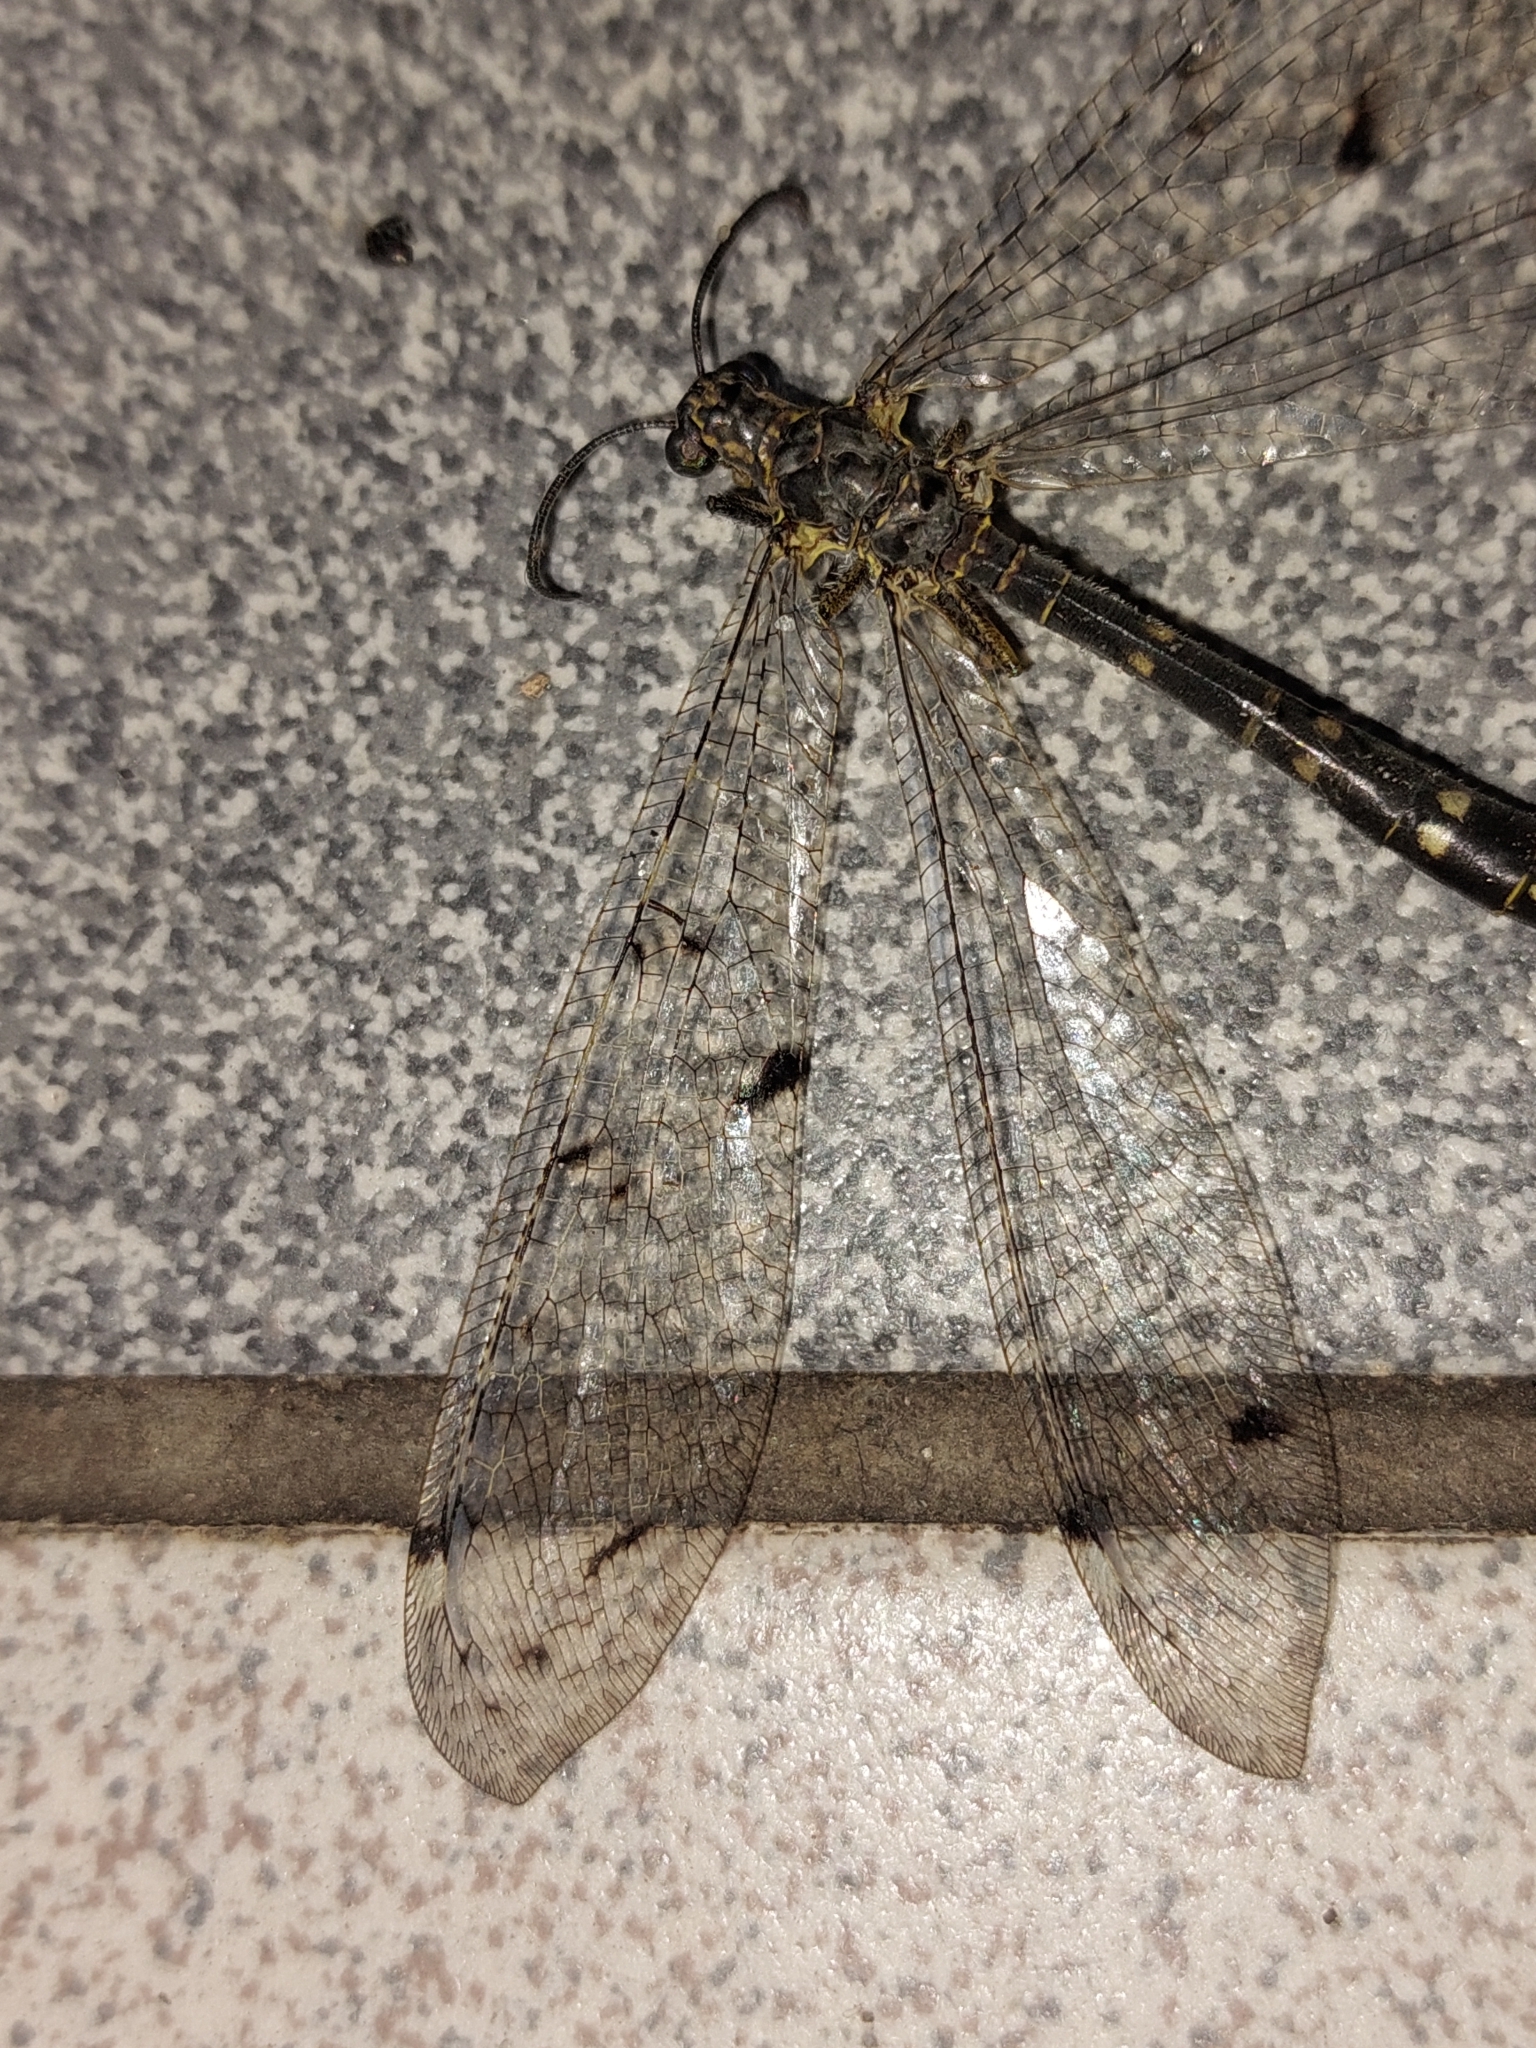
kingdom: Animalia
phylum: Arthropoda
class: Insecta
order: Neuroptera
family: Myrmeleontidae
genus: Distoleon
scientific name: Distoleon tetragrammicus
